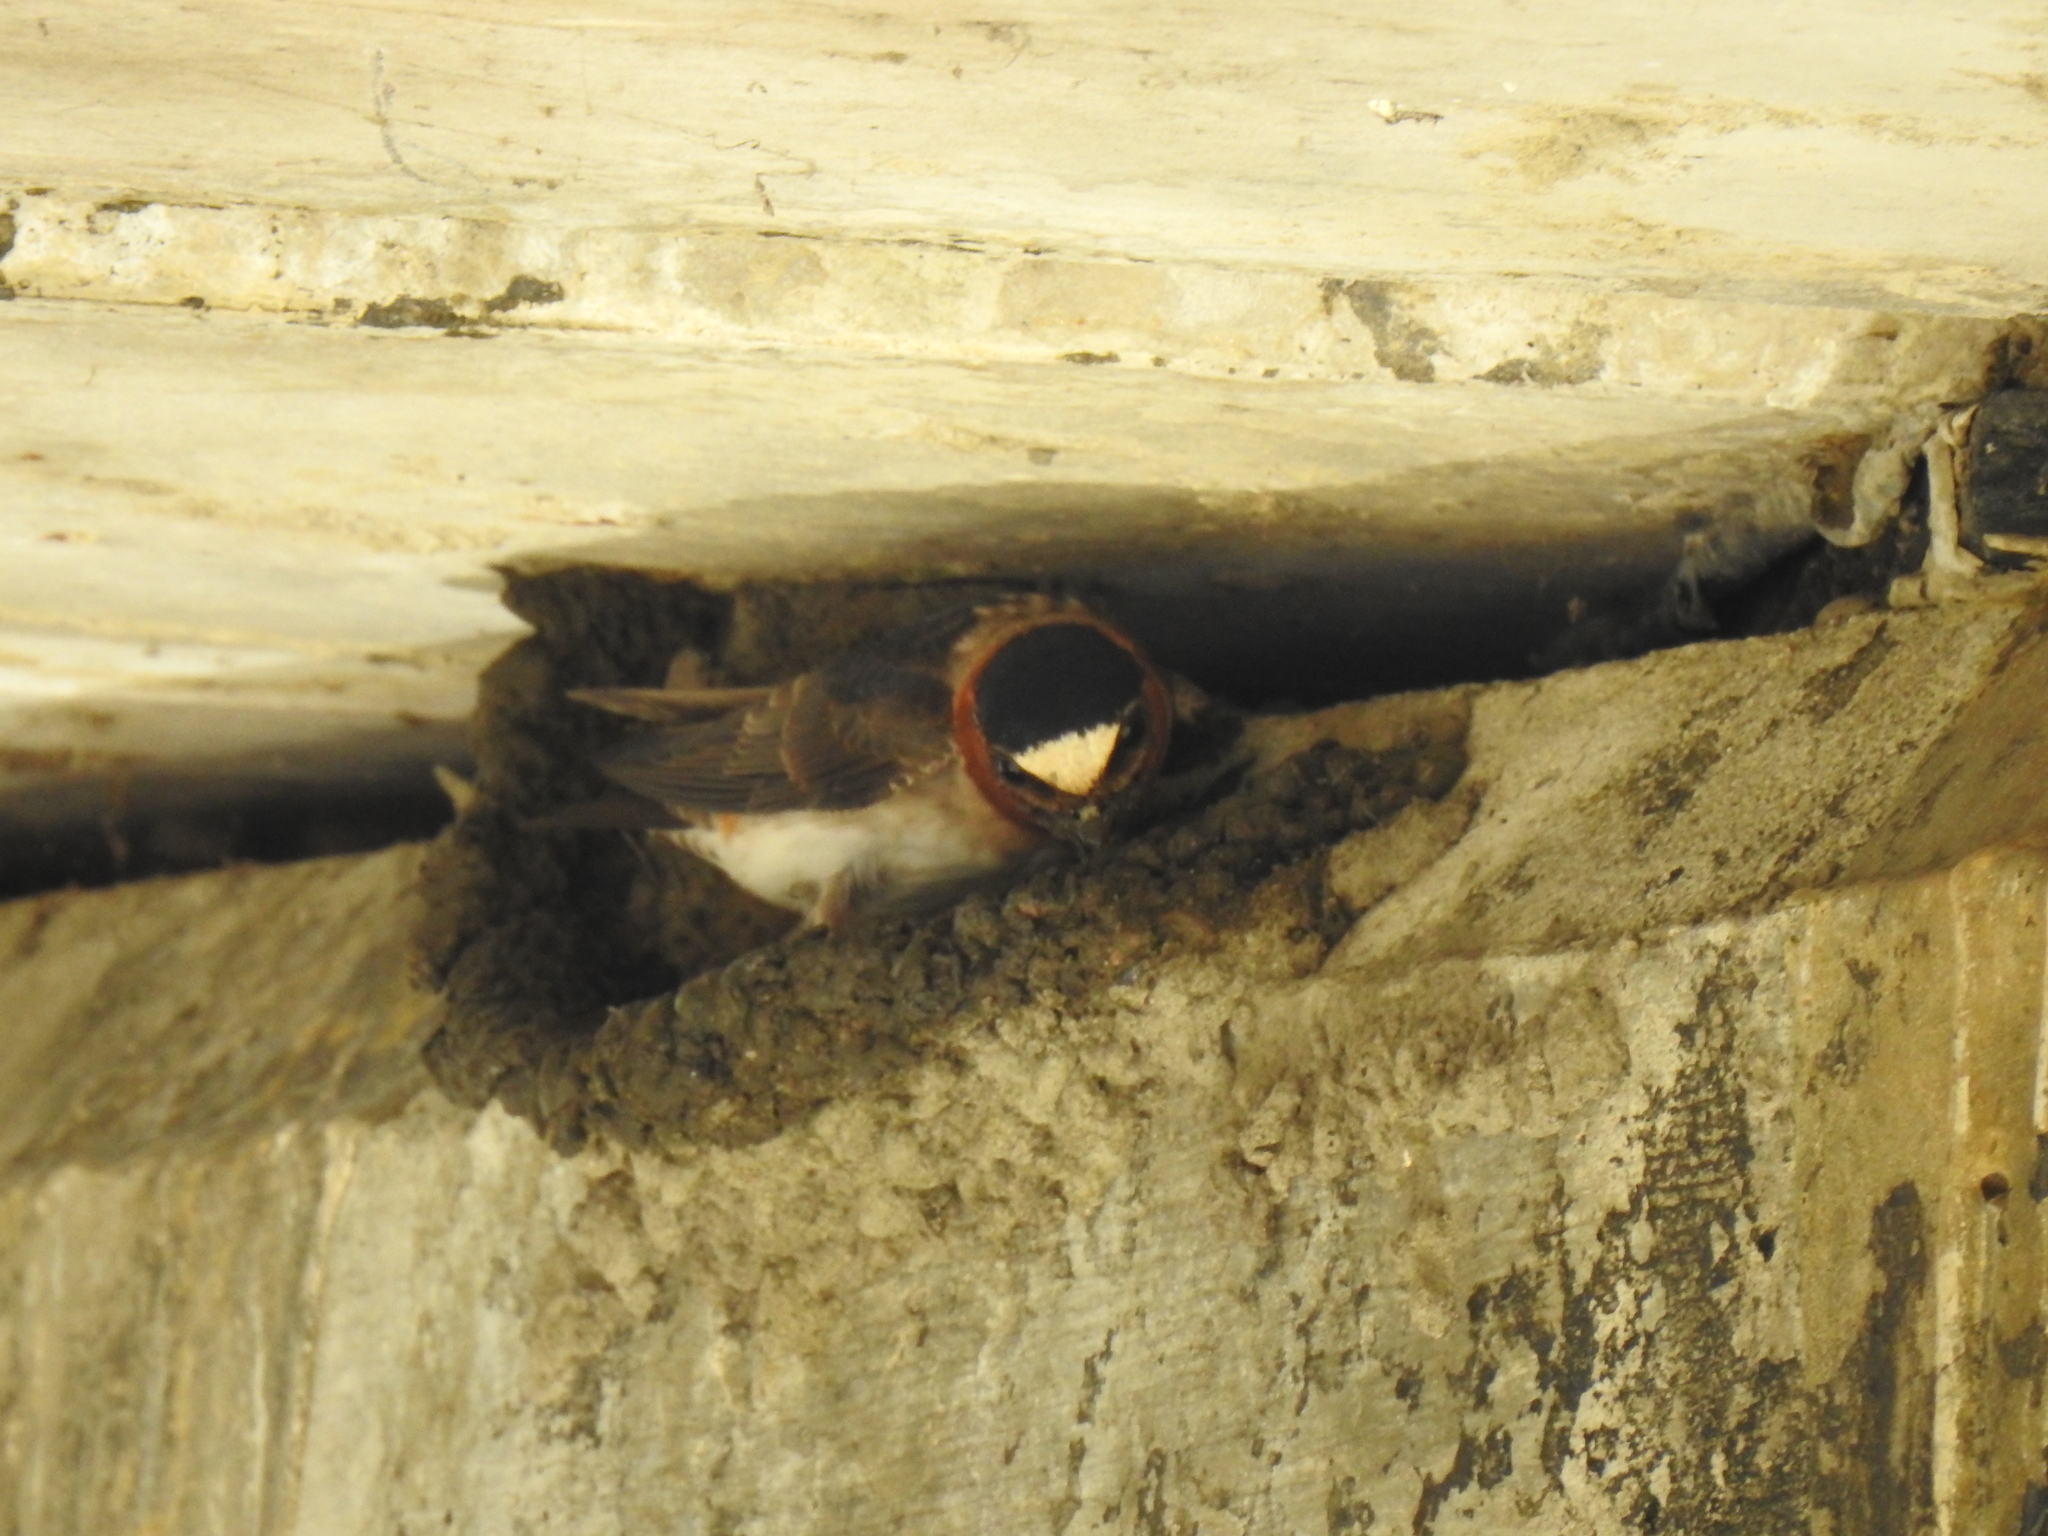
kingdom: Animalia
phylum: Chordata
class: Aves
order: Passeriformes
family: Hirundinidae
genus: Petrochelidon
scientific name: Petrochelidon pyrrhonota
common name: American cliff swallow
